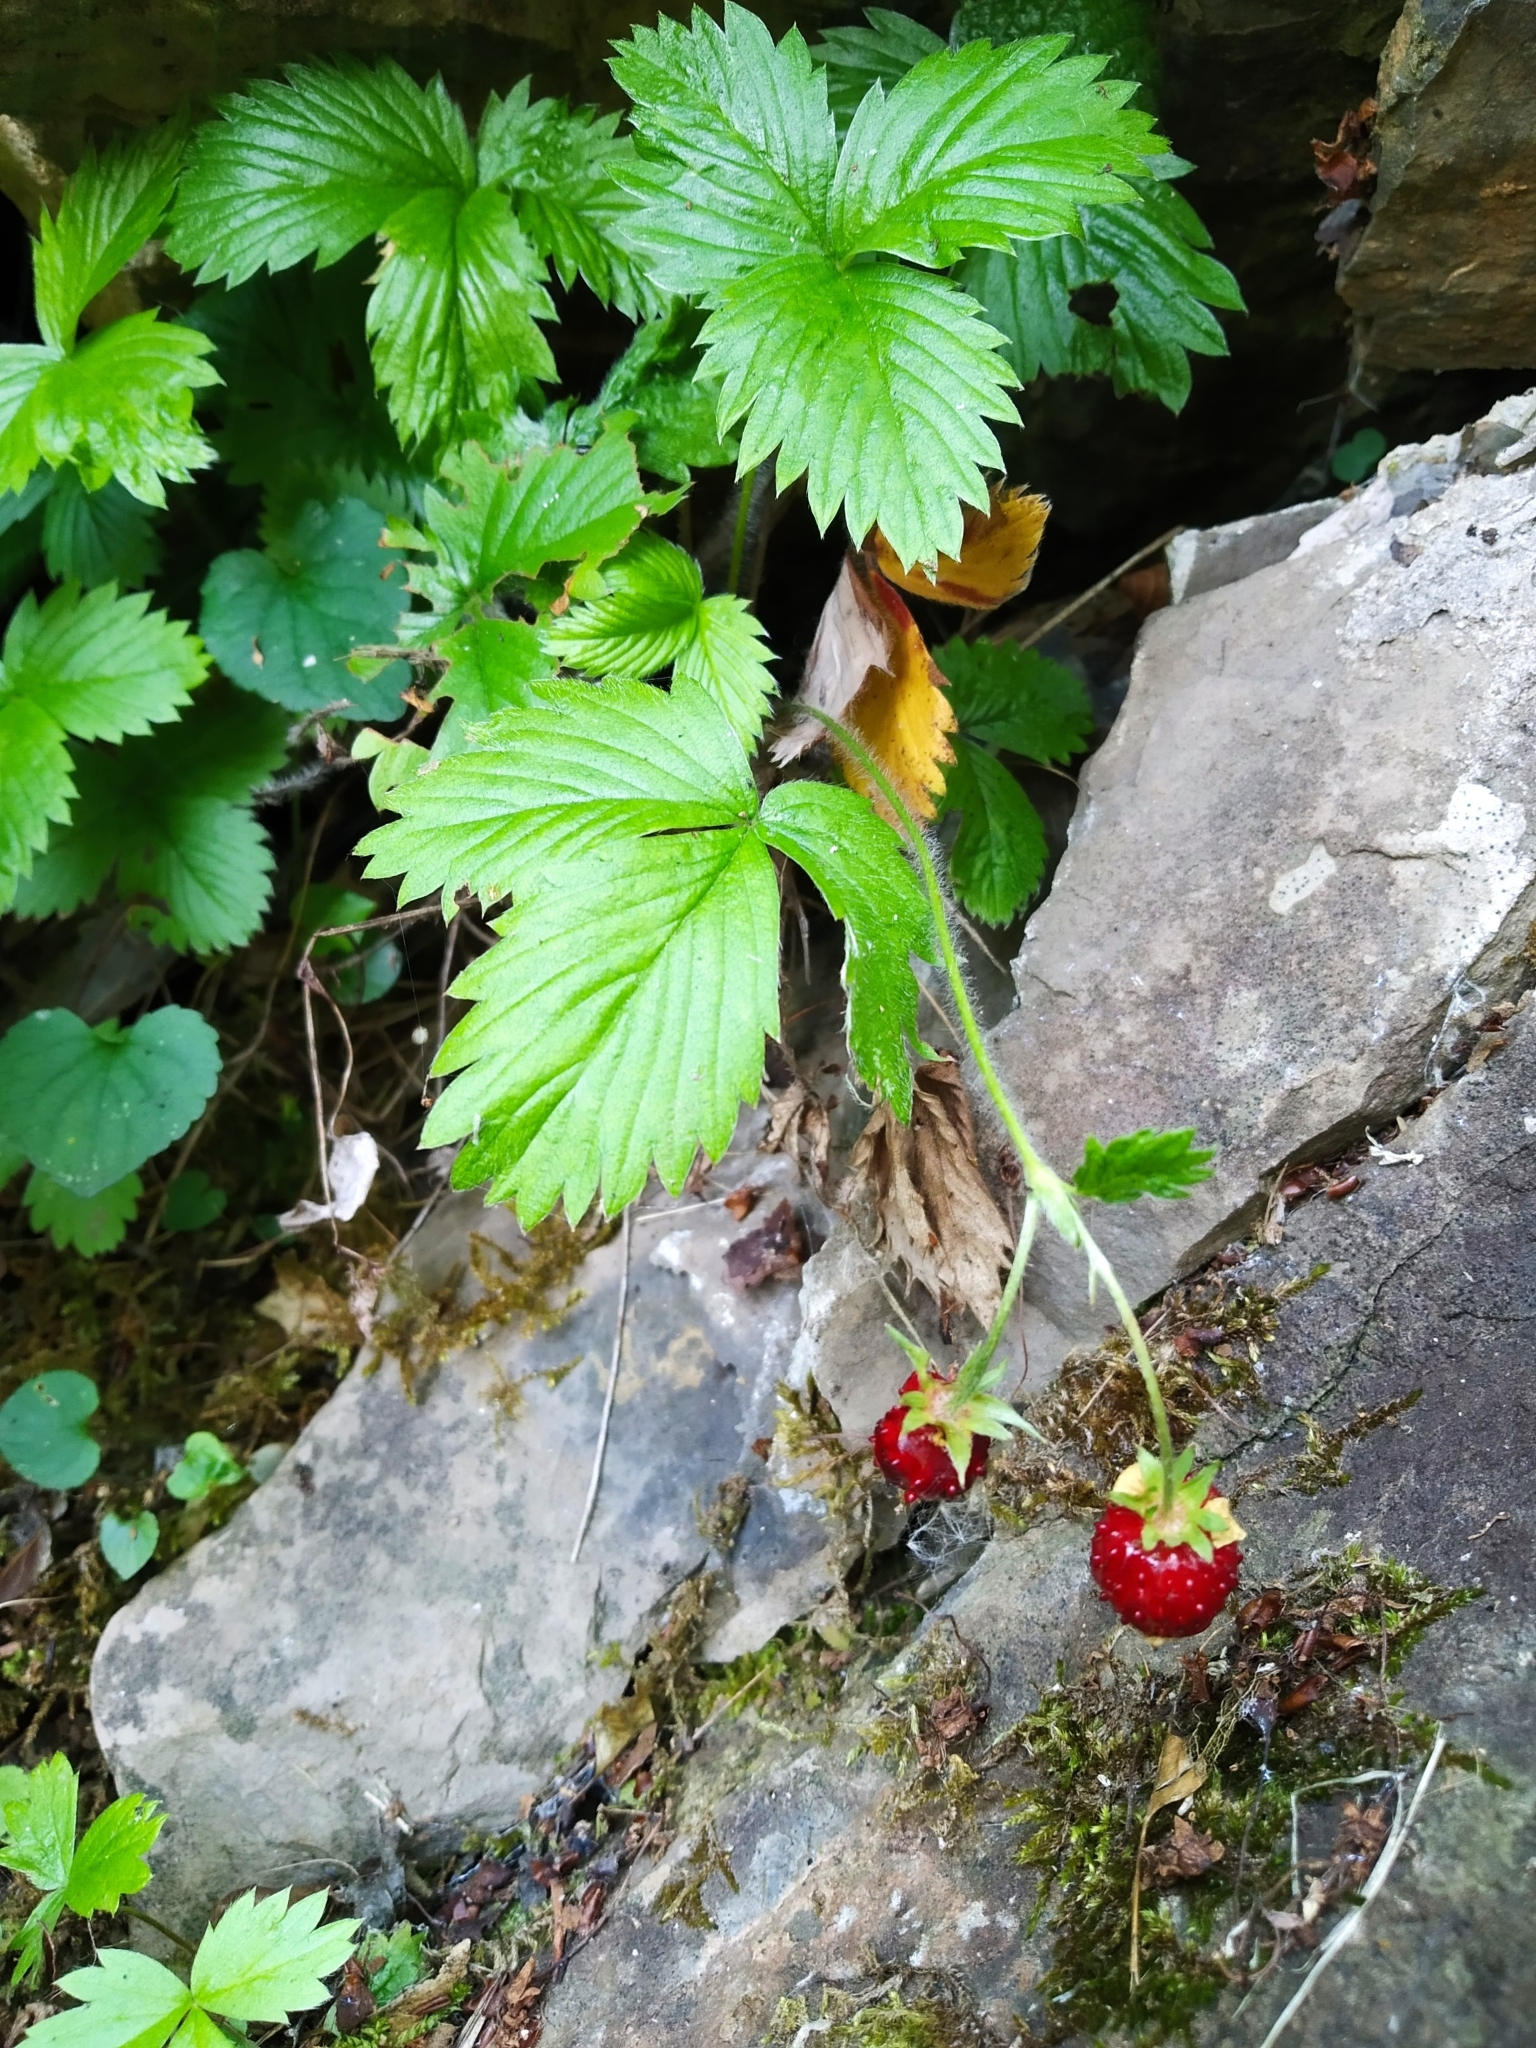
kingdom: Plantae
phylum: Tracheophyta
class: Magnoliopsida
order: Rosales
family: Rosaceae
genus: Fragaria
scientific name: Fragaria vesca
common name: Wild strawberry
